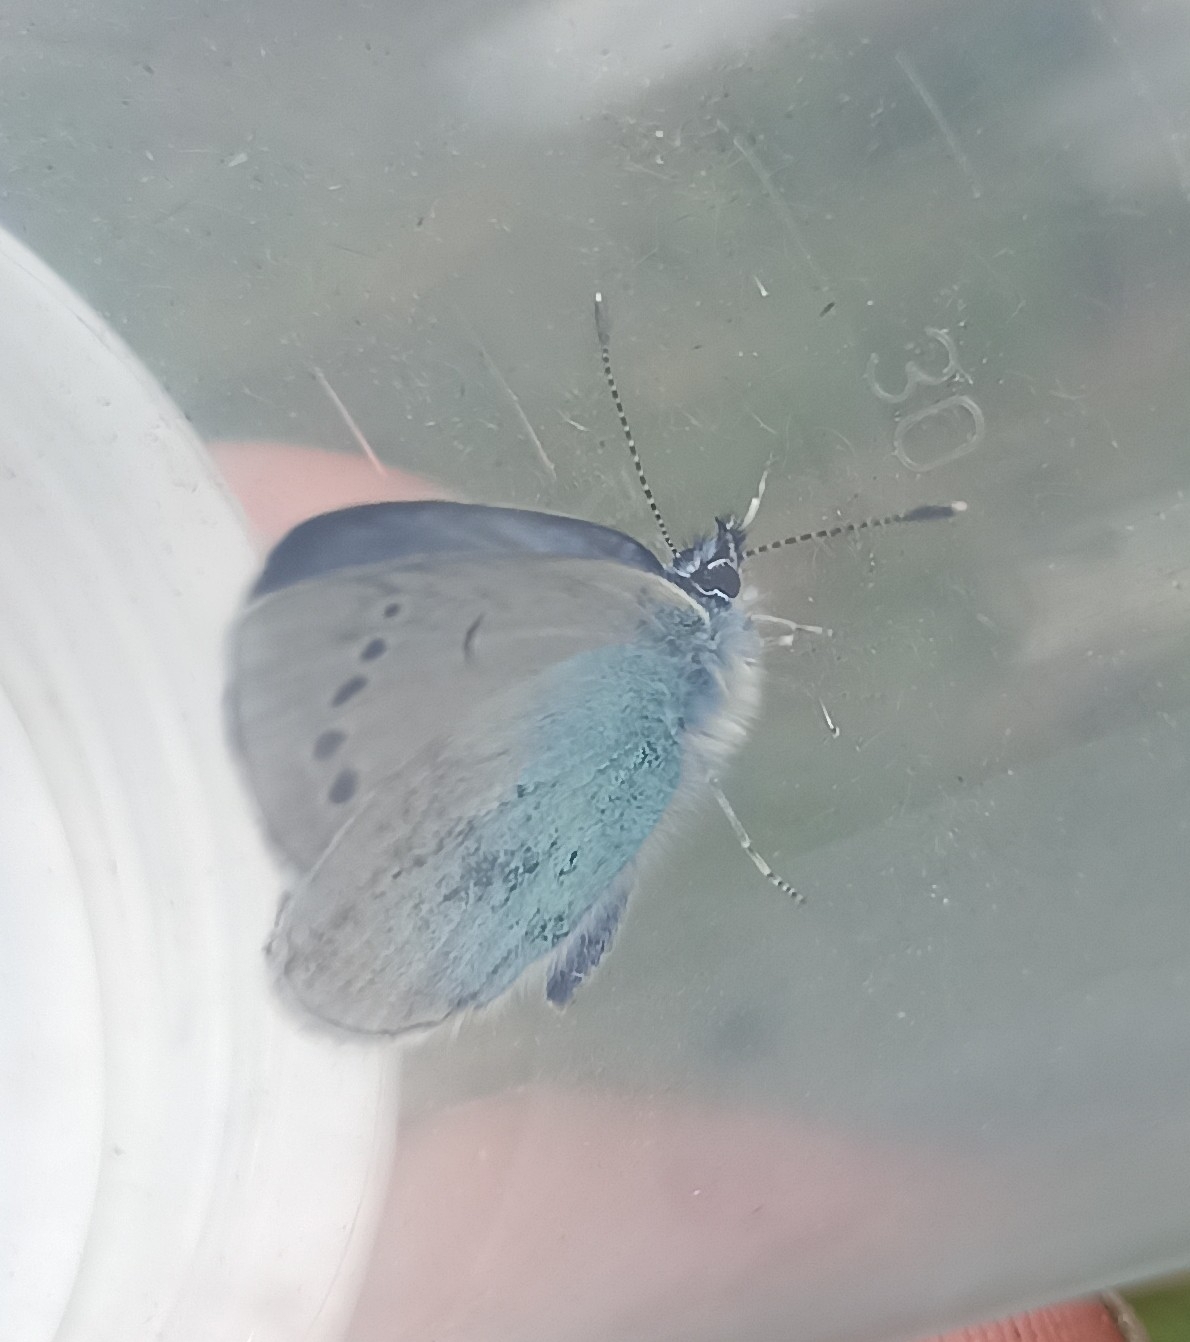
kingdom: Animalia
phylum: Arthropoda
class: Insecta
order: Lepidoptera
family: Lycaenidae
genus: Glaucopsyche
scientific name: Glaucopsyche alexis
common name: Green-underside blue
